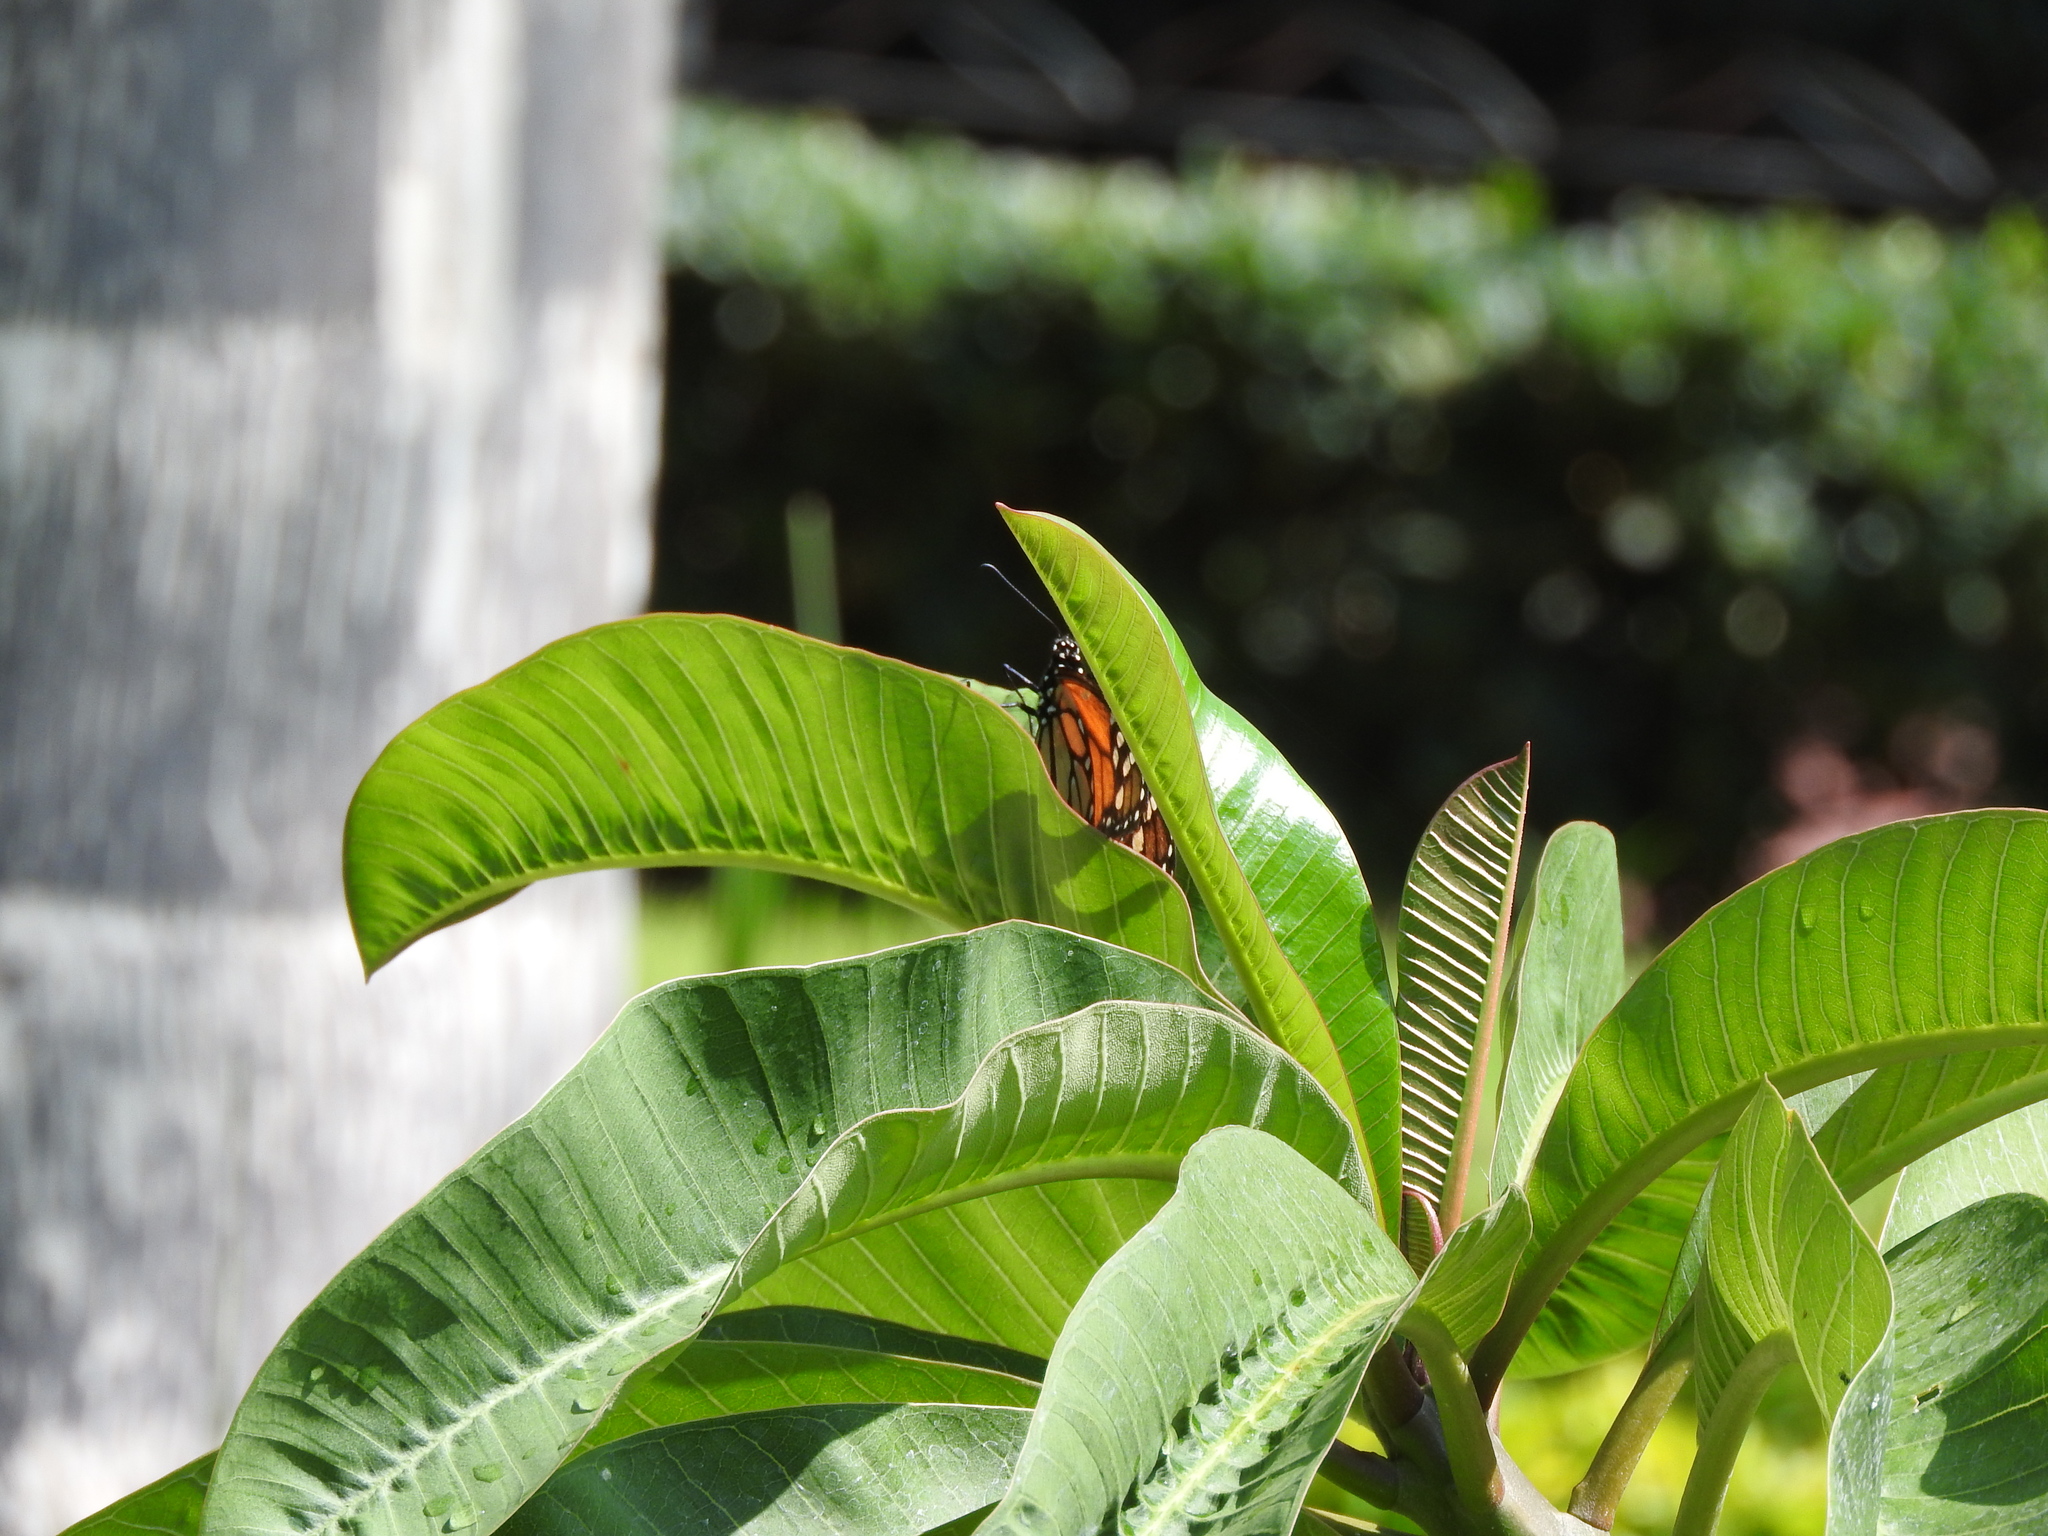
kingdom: Animalia
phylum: Arthropoda
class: Insecta
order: Lepidoptera
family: Nymphalidae
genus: Danaus
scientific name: Danaus plexippus
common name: Monarch
